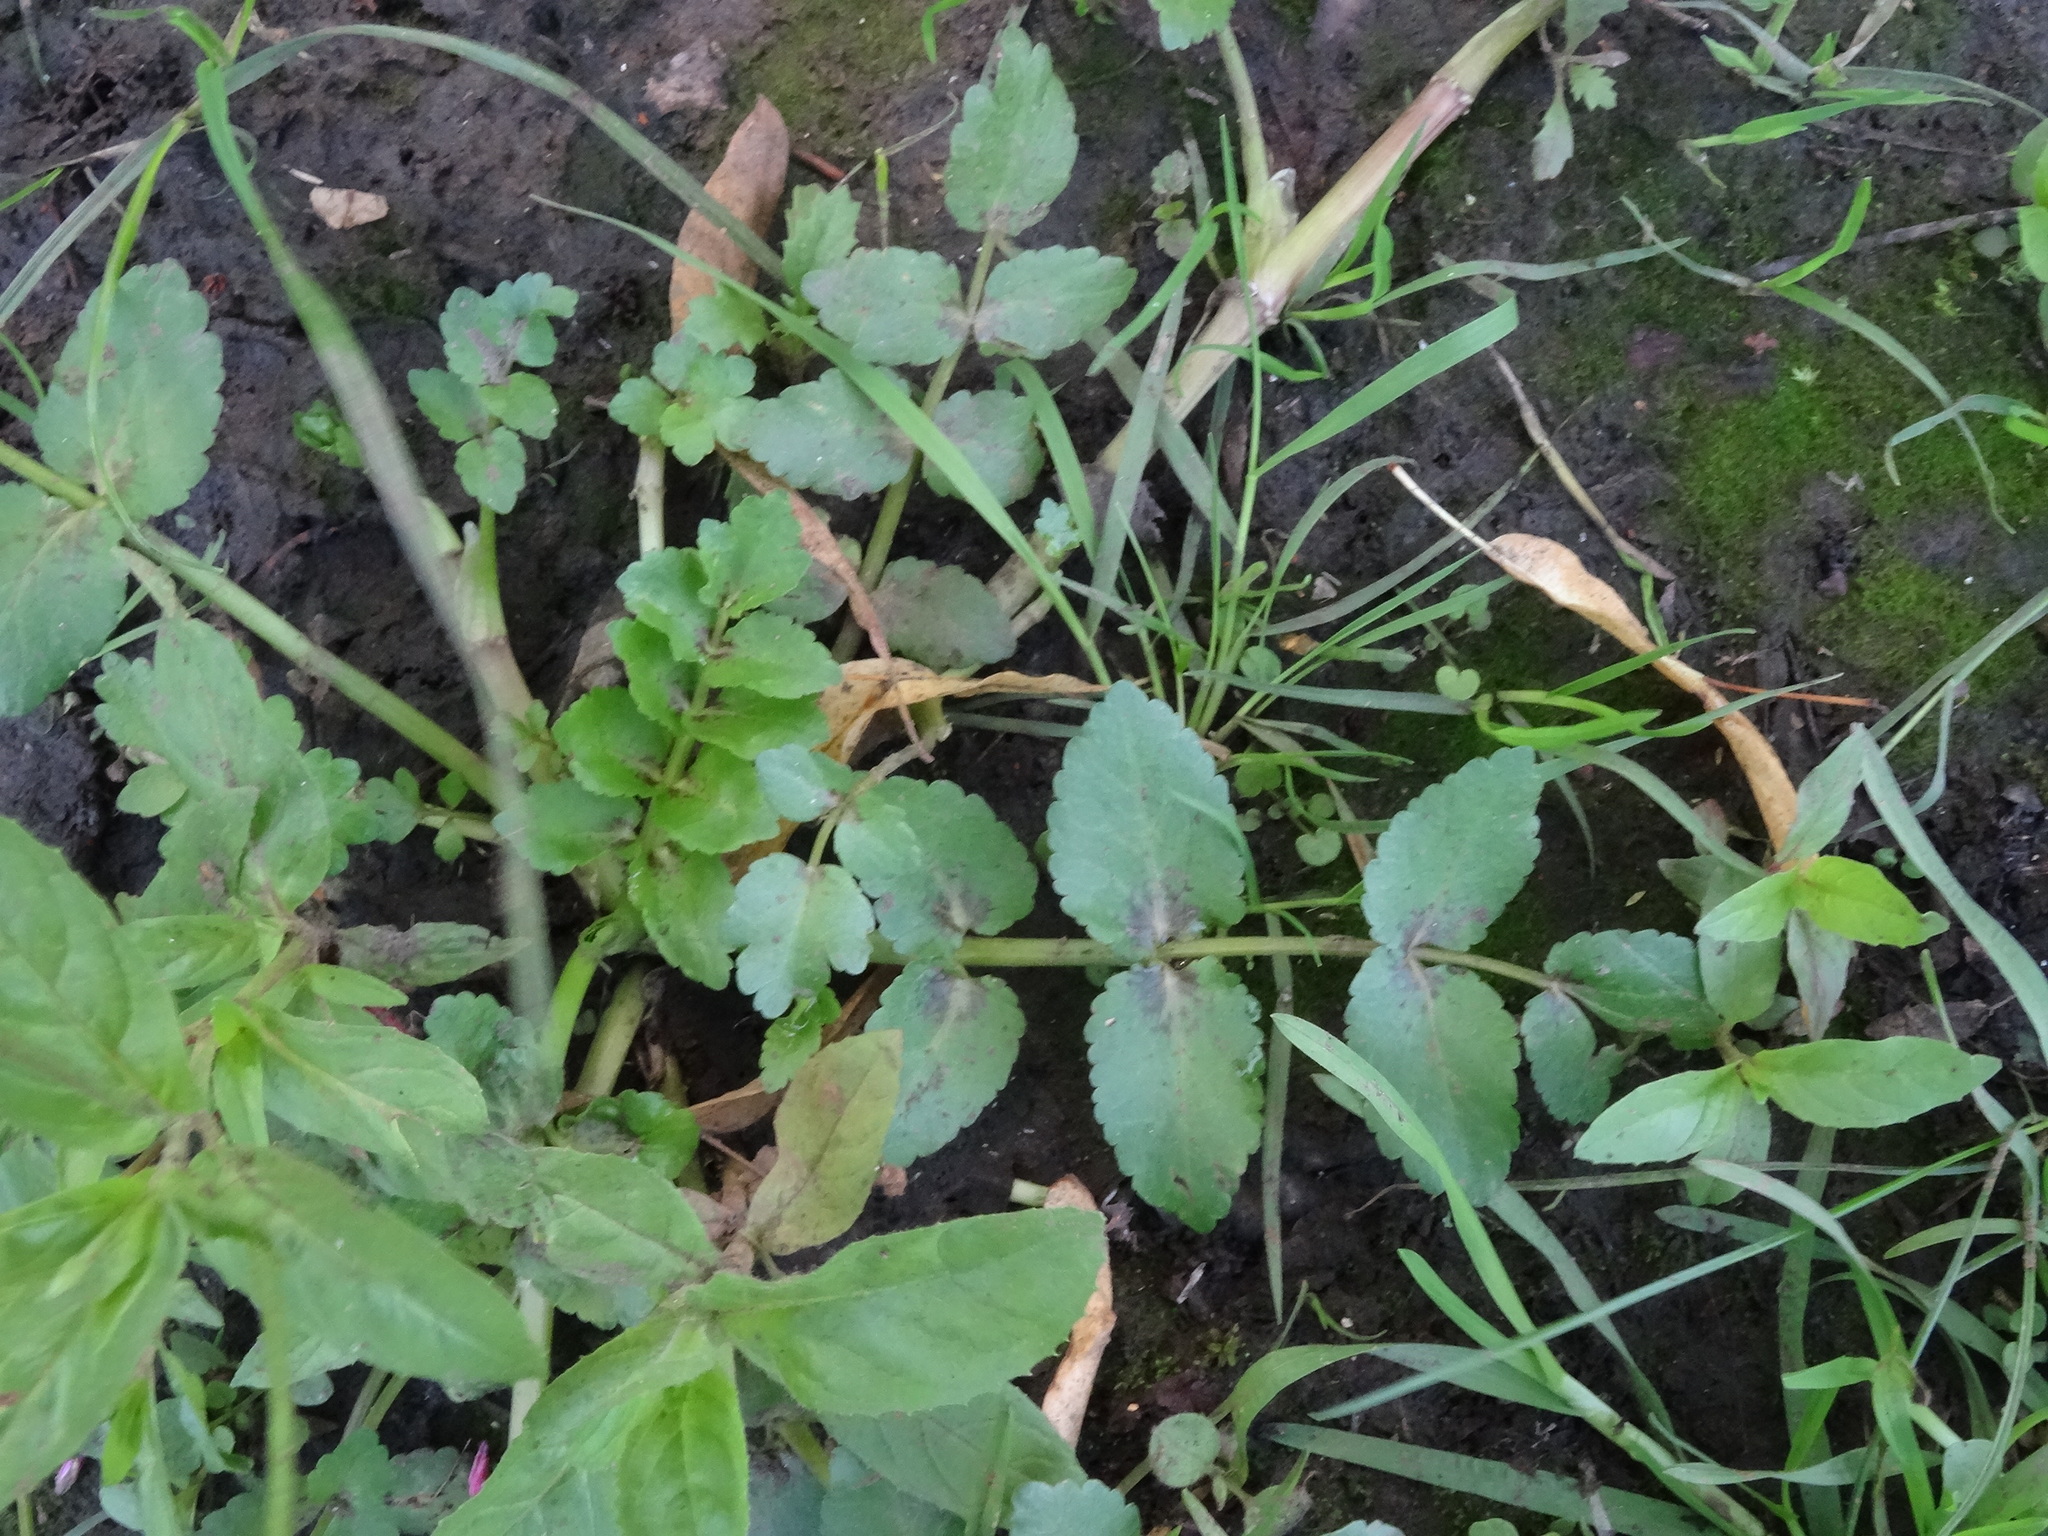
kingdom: Plantae
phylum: Tracheophyta
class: Magnoliopsida
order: Apiales
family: Apiaceae
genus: Helosciadium
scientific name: Helosciadium nodiflorum
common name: Fool's-watercress
